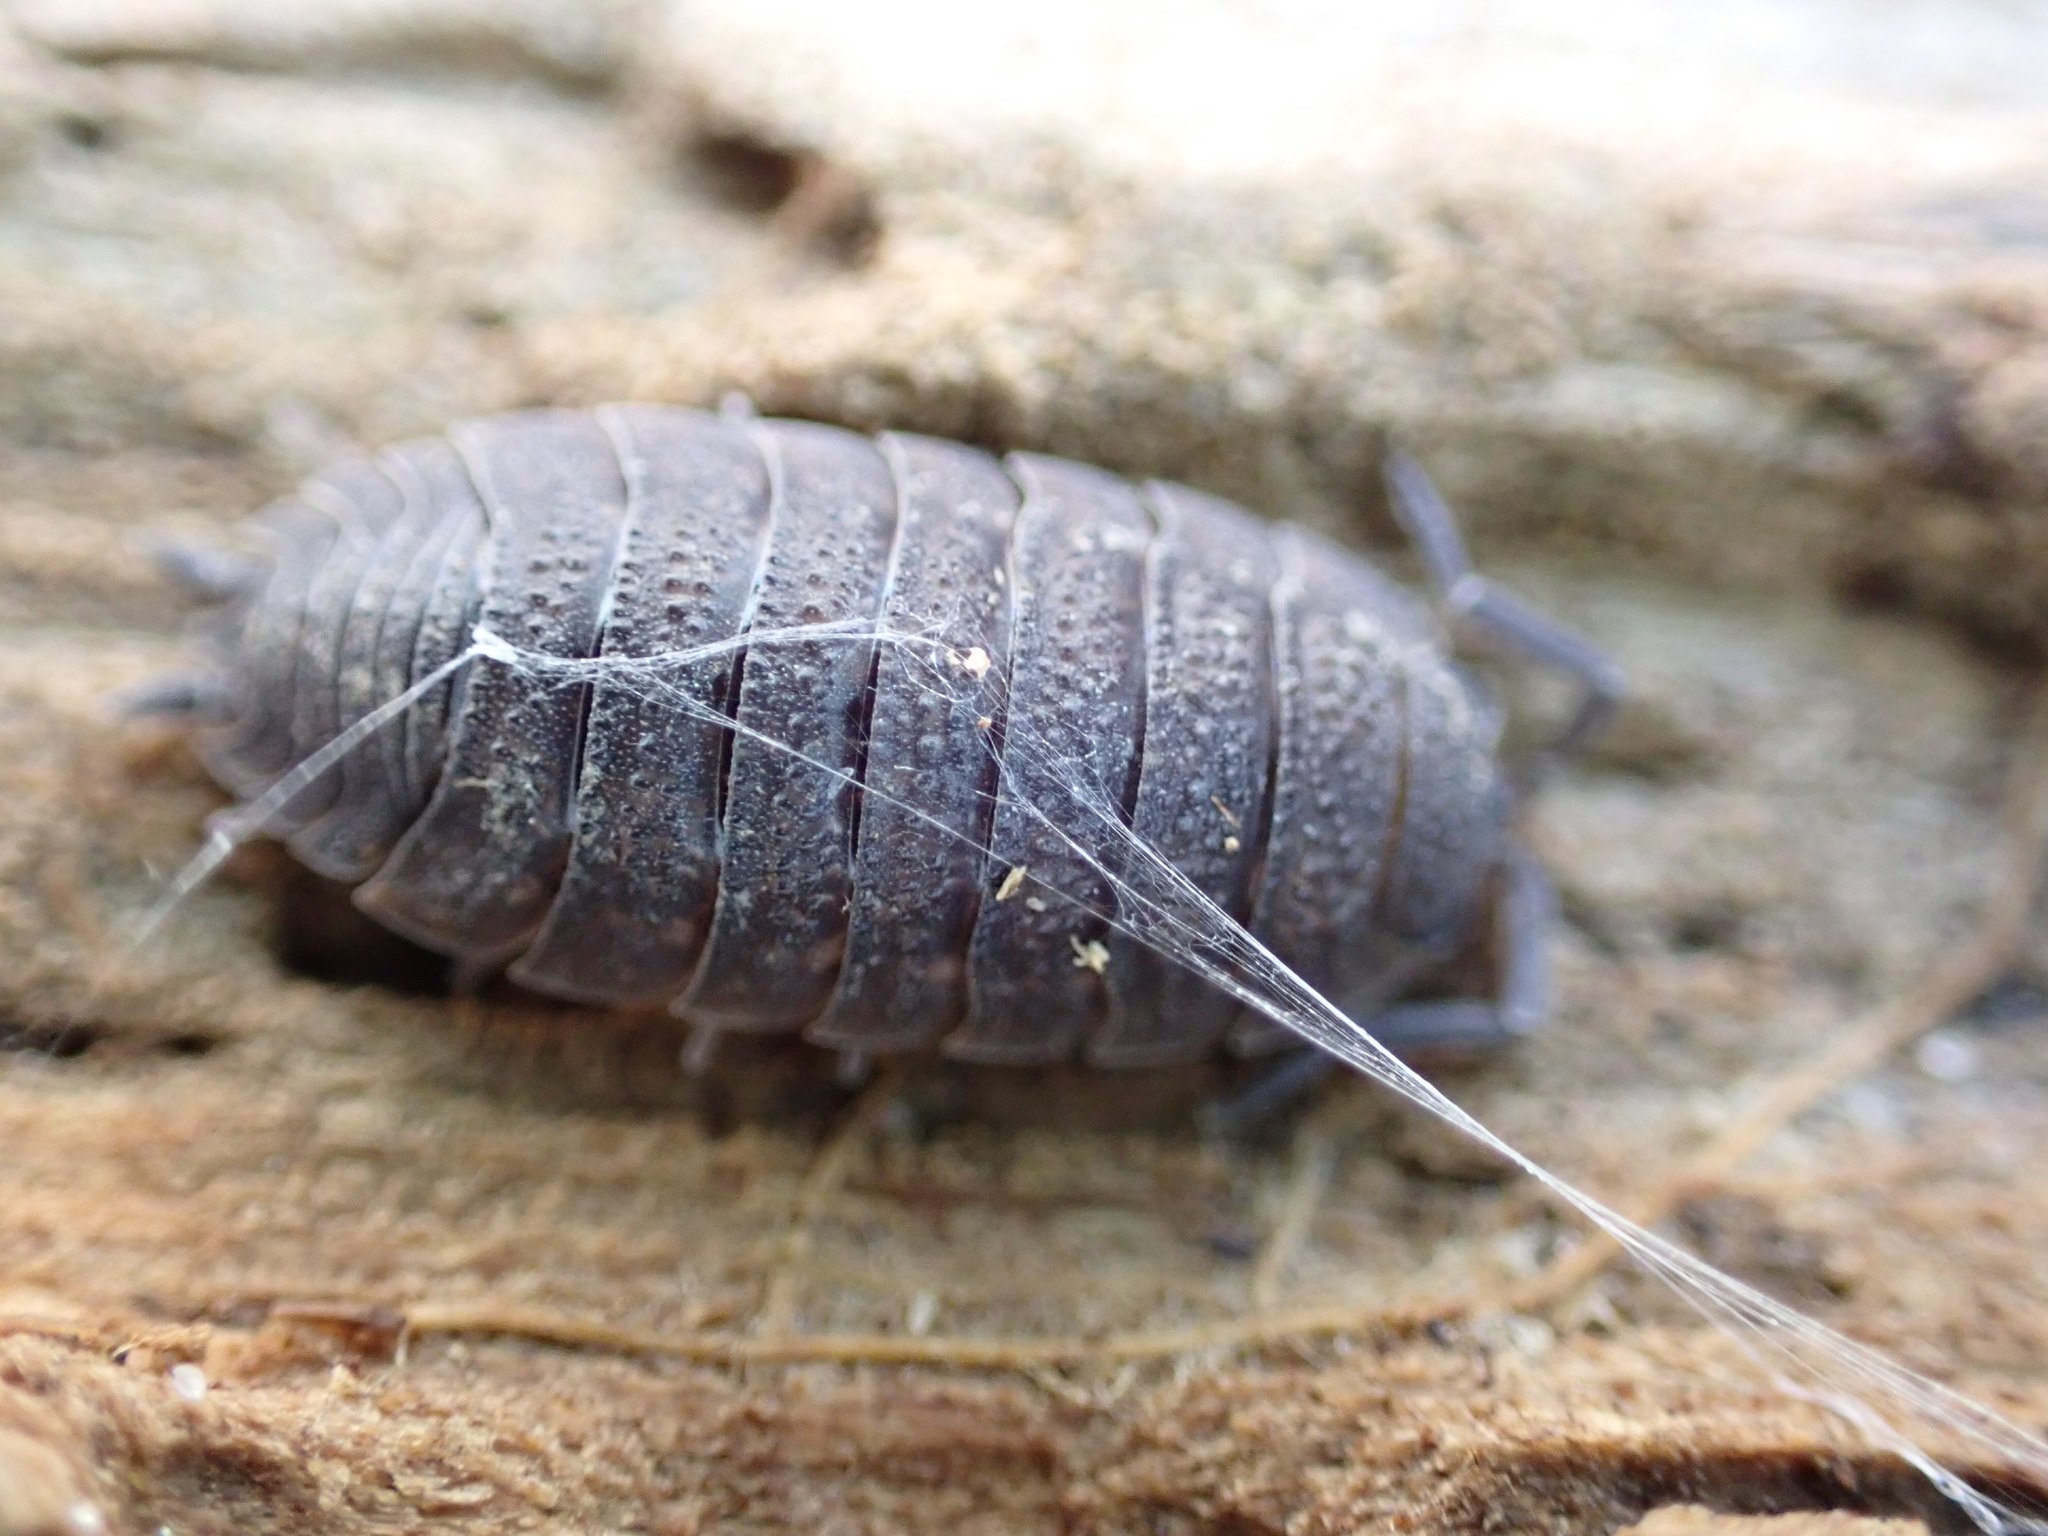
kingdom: Animalia
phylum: Arthropoda
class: Malacostraca
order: Isopoda
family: Porcellionidae
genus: Porcellio
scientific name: Porcellio scaber
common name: Common rough woodlouse
